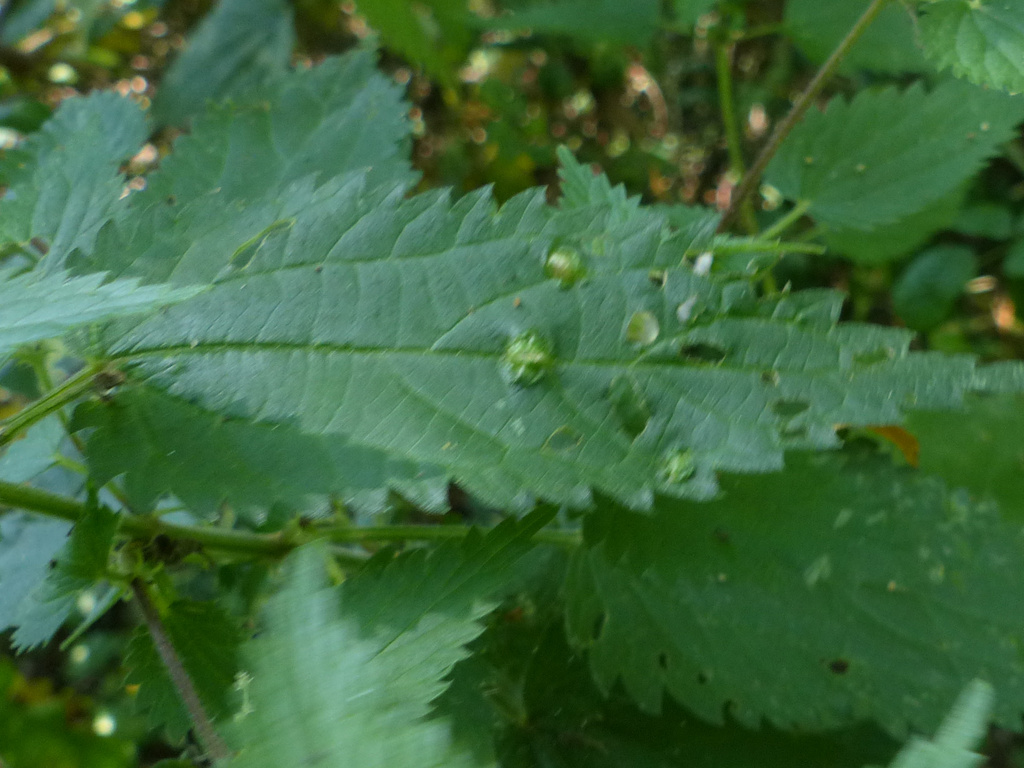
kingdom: Animalia
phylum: Arthropoda
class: Insecta
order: Diptera
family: Cecidomyiidae
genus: Dasineura
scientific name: Dasineura urticae
